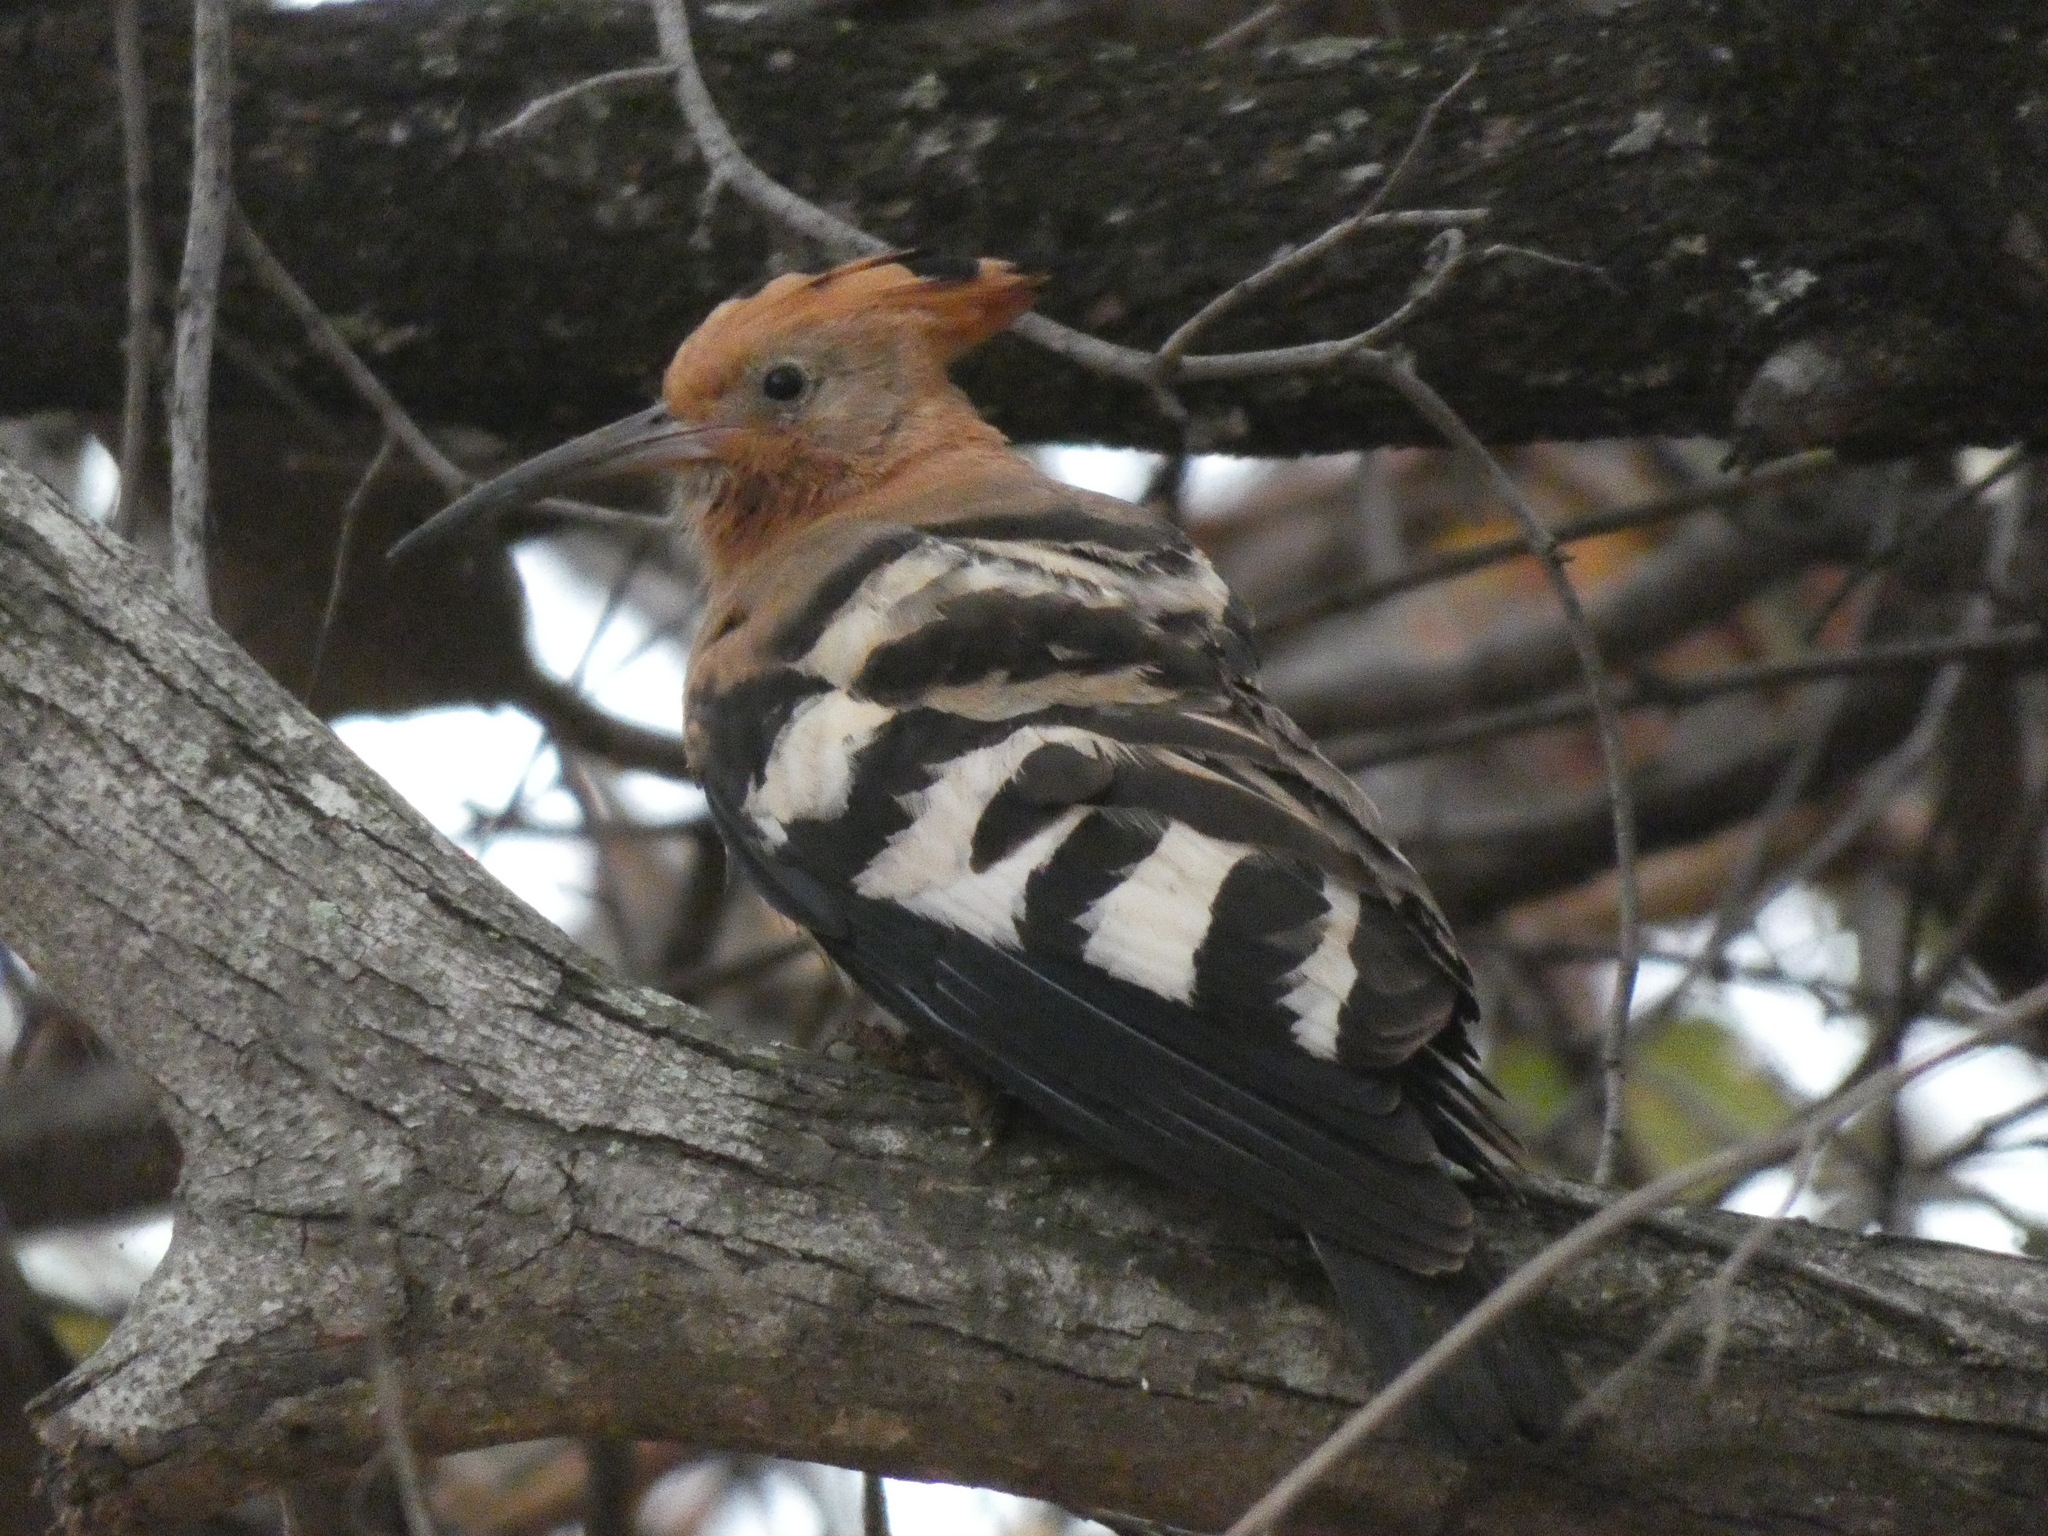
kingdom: Animalia
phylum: Chordata
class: Aves
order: Bucerotiformes
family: Upupidae
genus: Upupa
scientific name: Upupa africana
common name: African hoopoe
